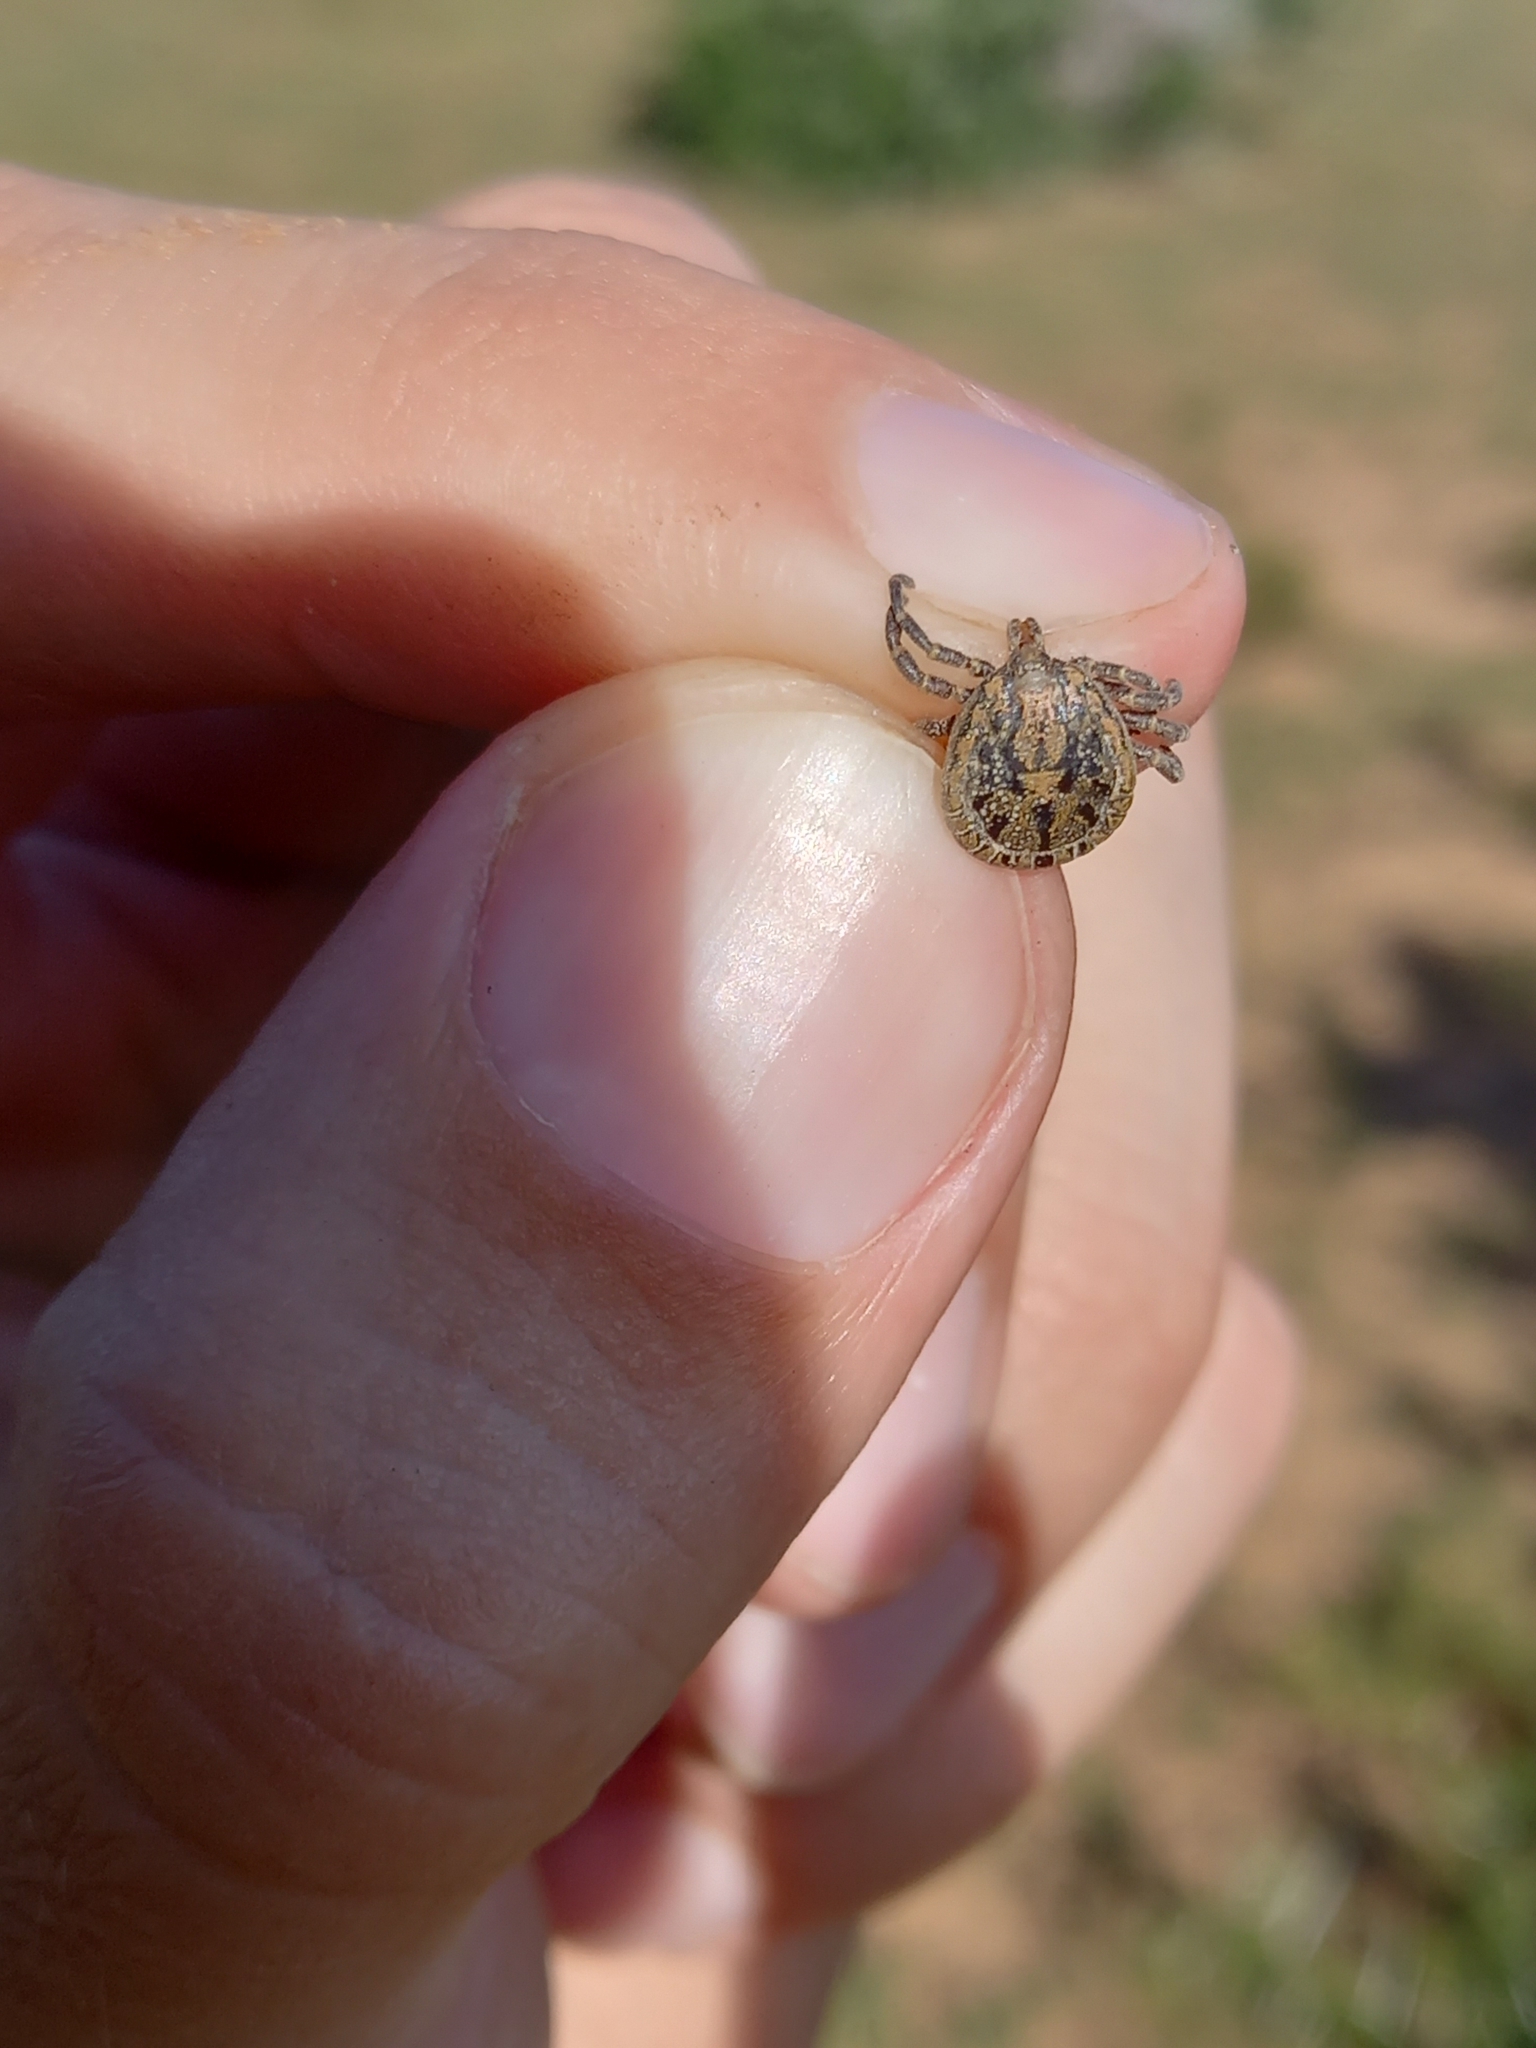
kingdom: Animalia
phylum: Arthropoda
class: Arachnida
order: Ixodida
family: Ixodidae
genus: Amblyomma
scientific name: Amblyomma marmoreum
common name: South african tortoise tick
